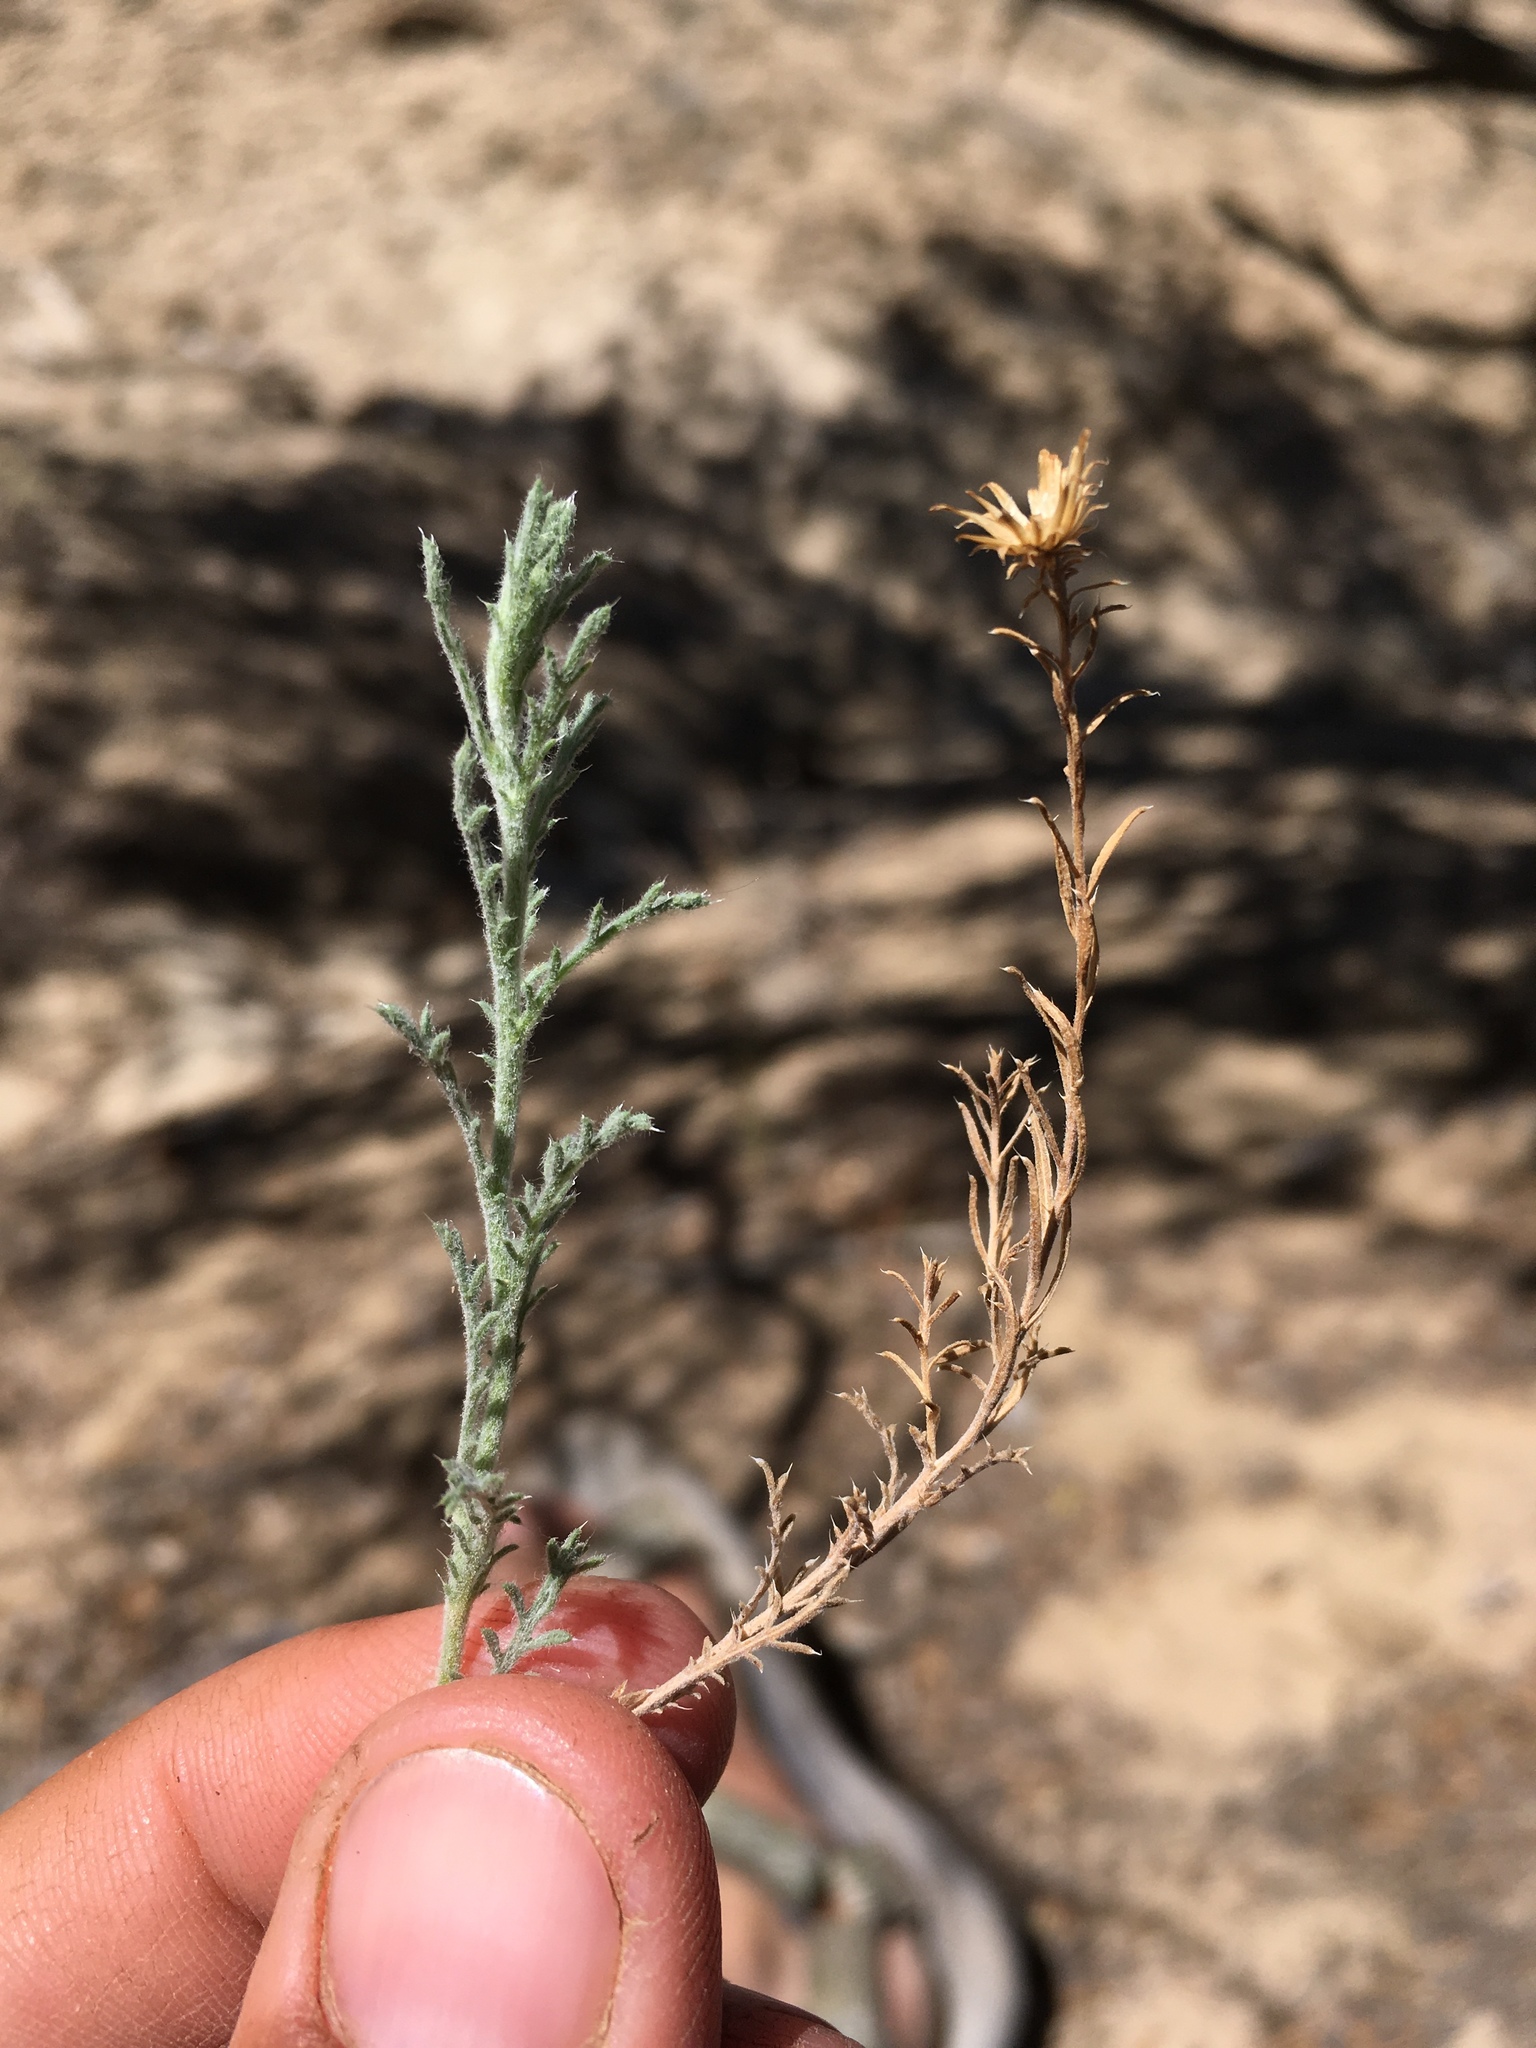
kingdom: Plantae
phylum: Tracheophyta
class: Magnoliopsida
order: Asterales
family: Asteraceae
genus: Xanthisma
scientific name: Xanthisma spinulosum
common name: Spiny goldenweed
